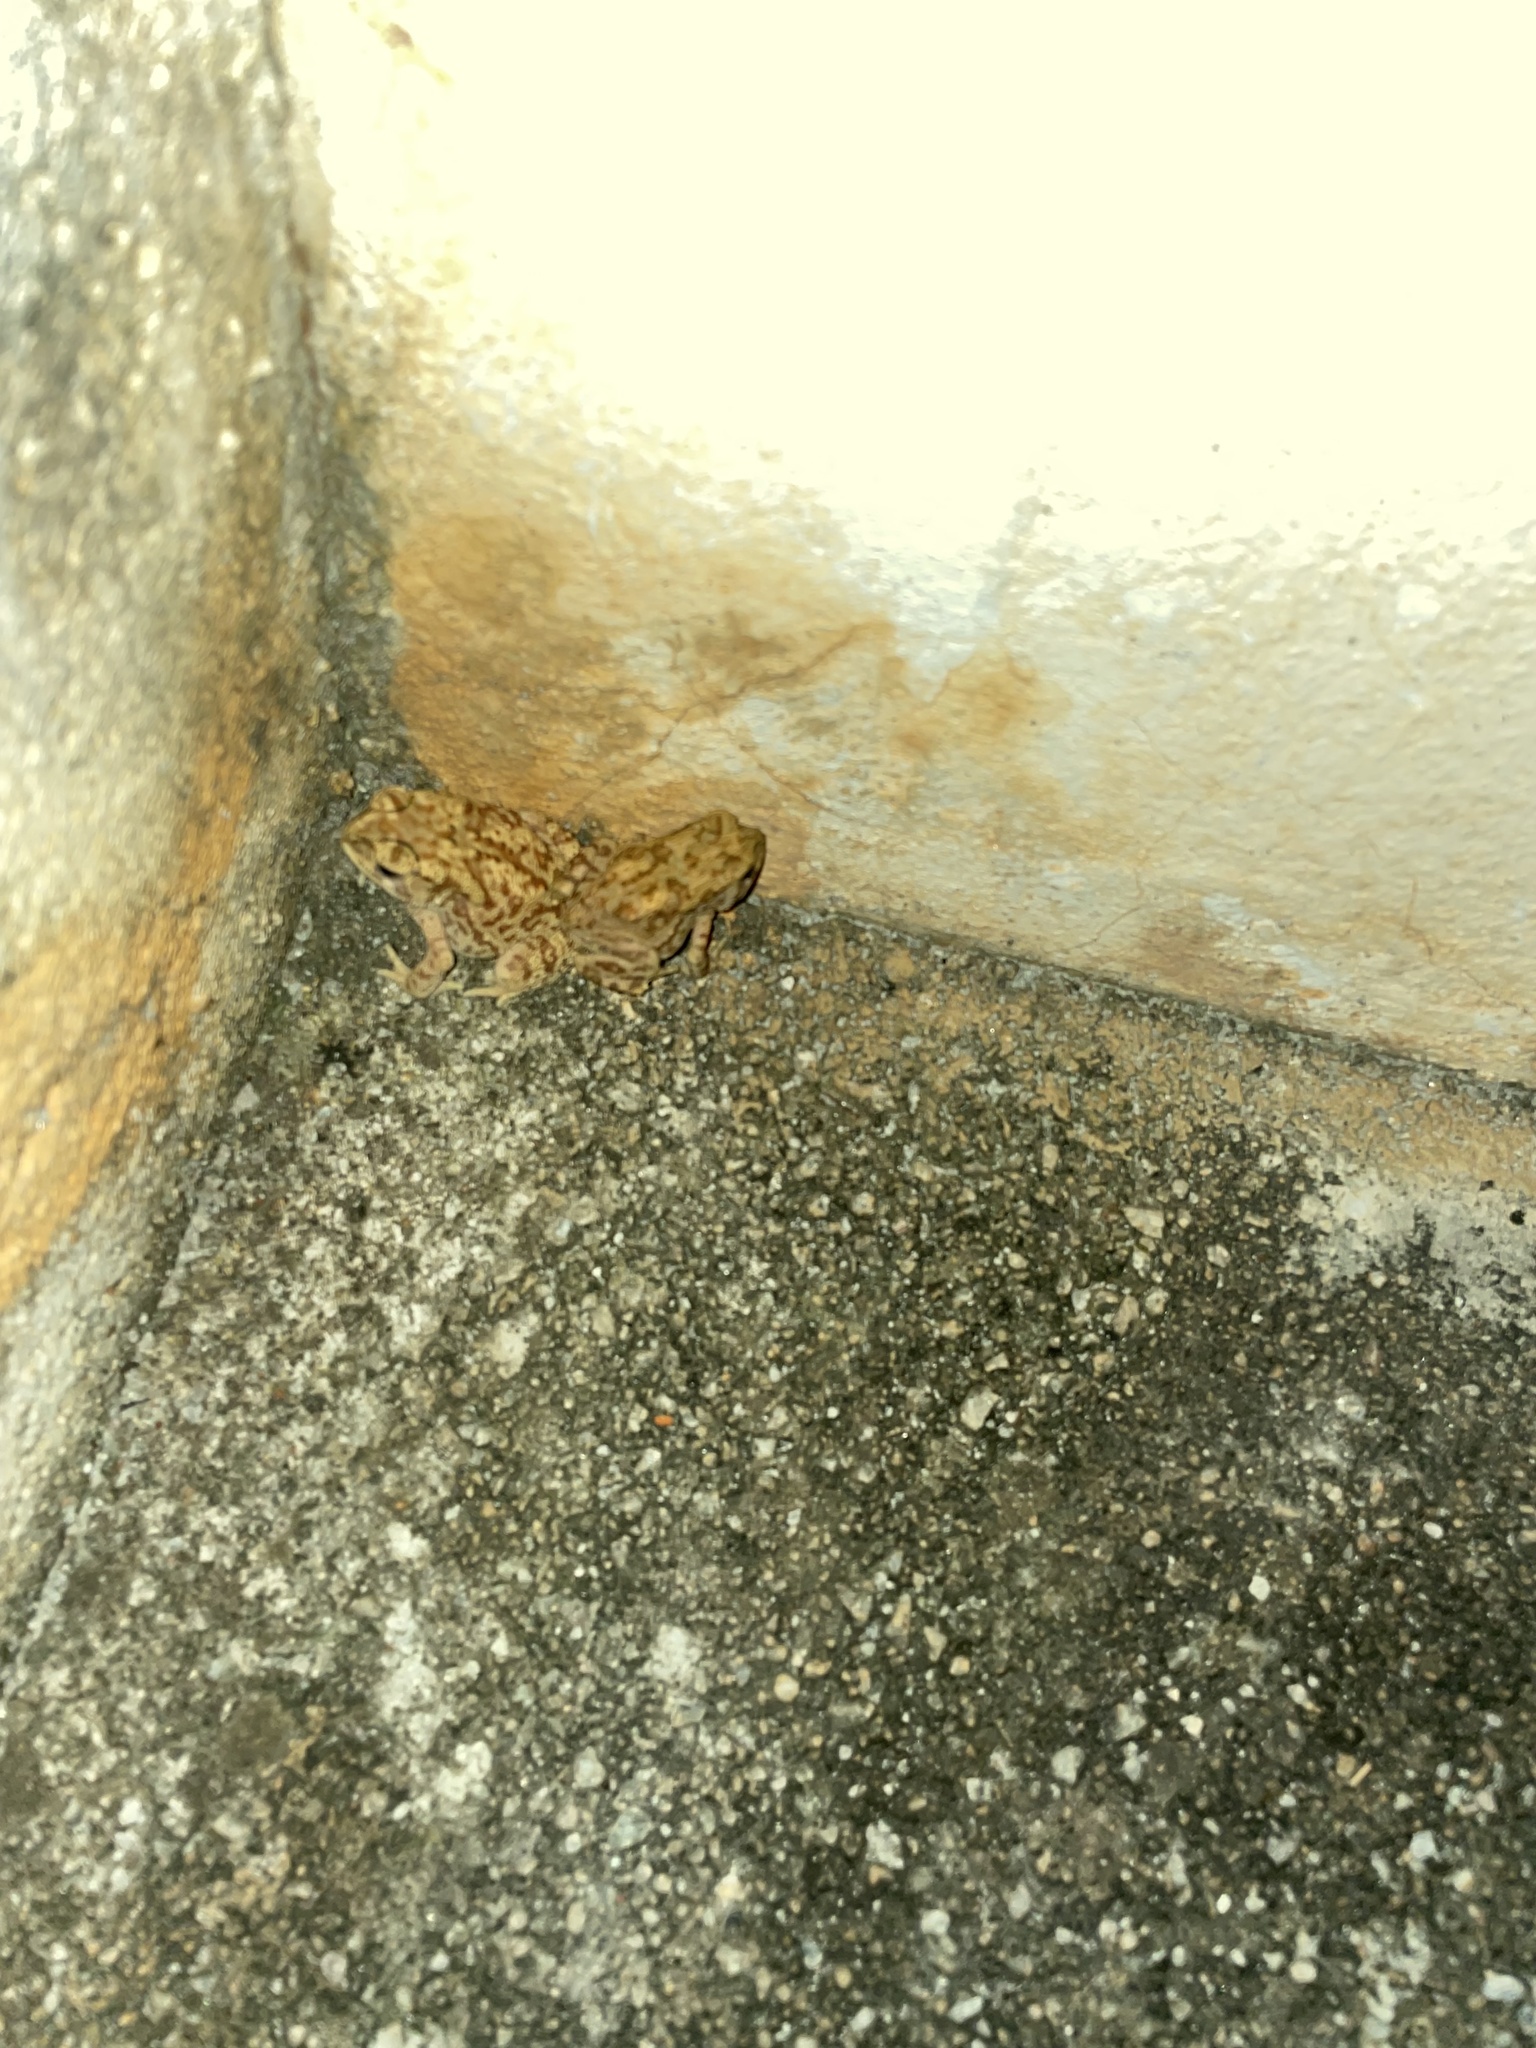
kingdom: Animalia
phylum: Chordata
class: Amphibia
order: Anura
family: Bufonidae
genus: Duttaphrynus
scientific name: Duttaphrynus melanostictus
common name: Common sunda toad
